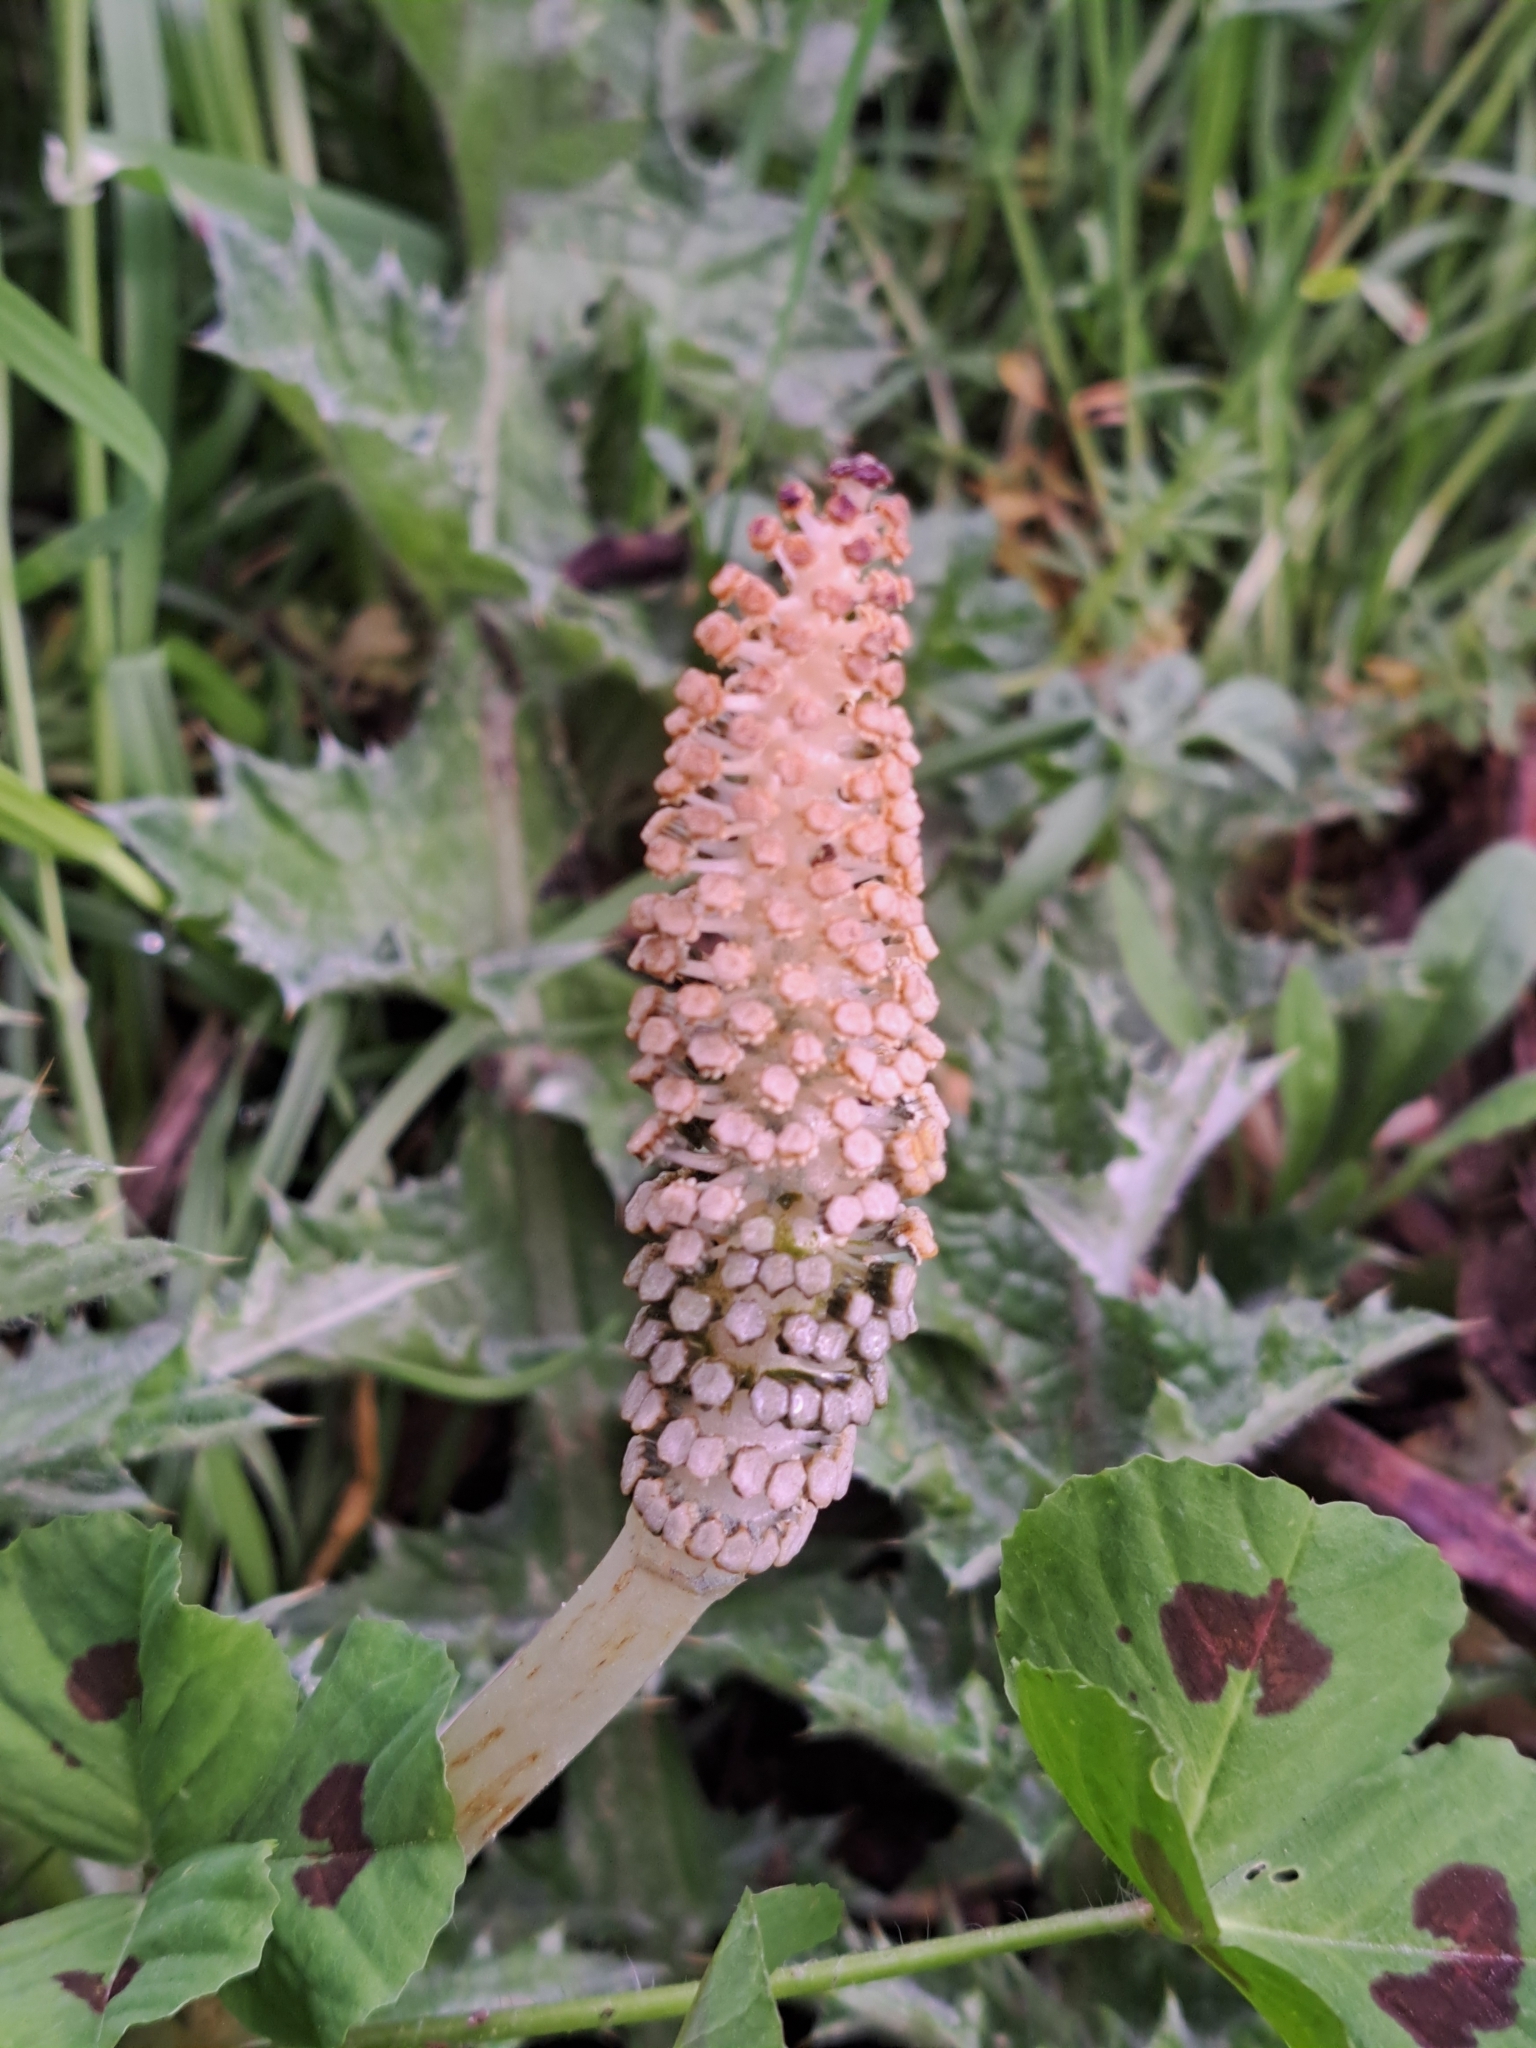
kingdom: Plantae
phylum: Tracheophyta
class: Polypodiopsida
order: Equisetales
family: Equisetaceae
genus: Equisetum
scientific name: Equisetum telmateia
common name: Great horsetail
